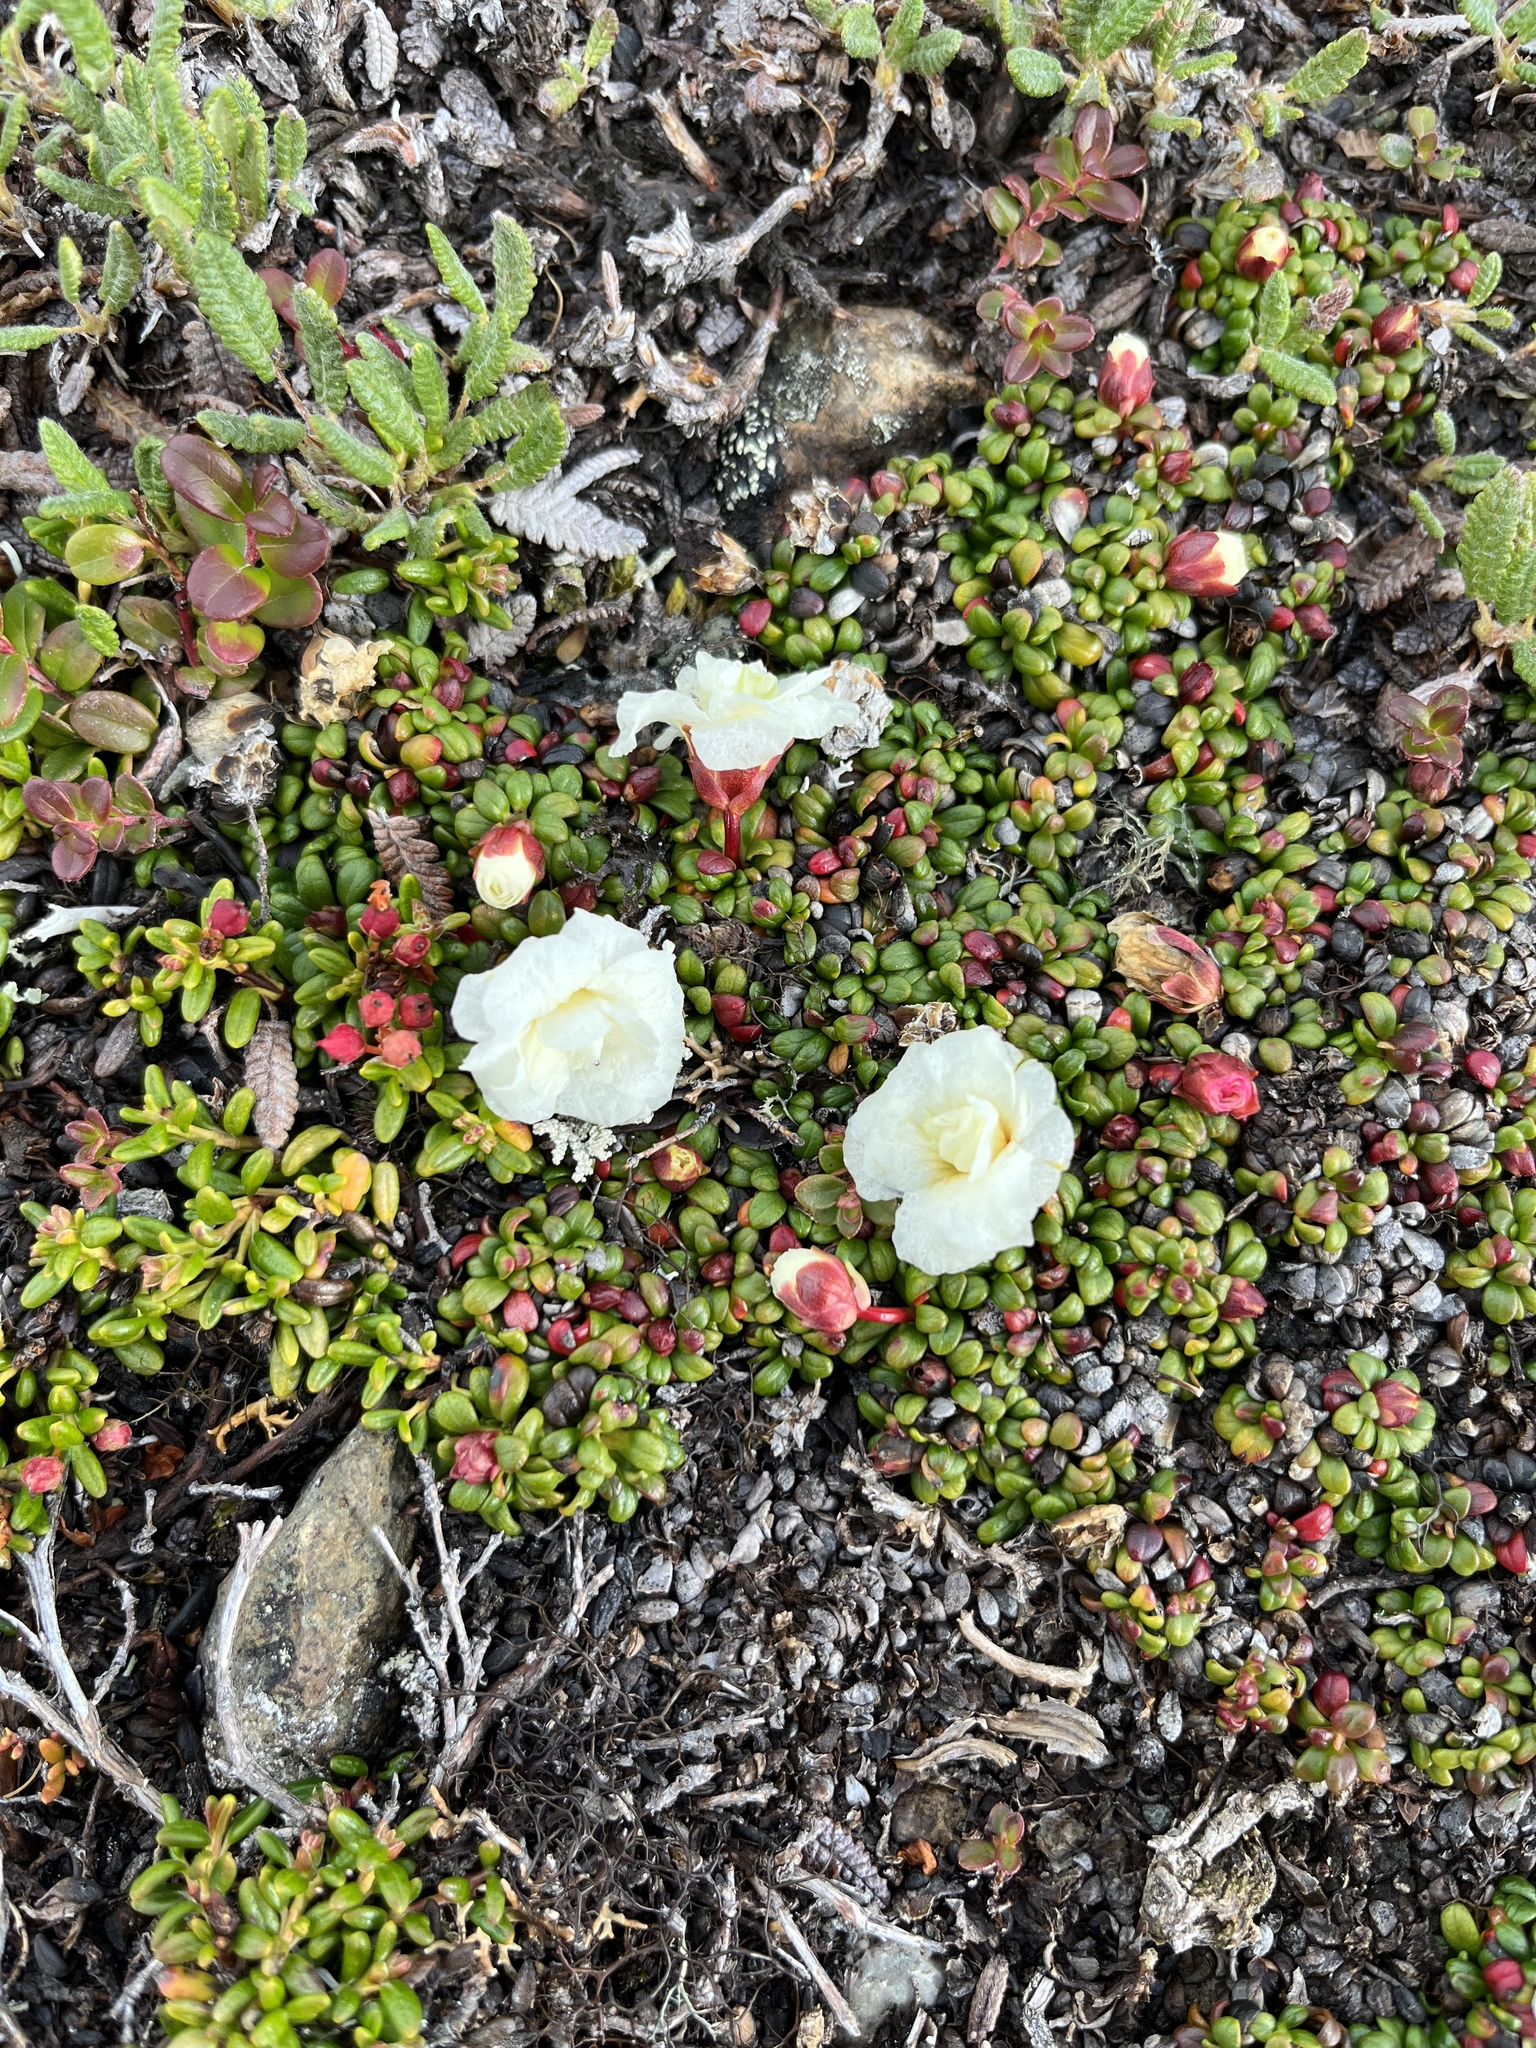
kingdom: Plantae
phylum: Tracheophyta
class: Magnoliopsida
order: Ericales
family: Diapensiaceae
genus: Diapensia
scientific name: Diapensia obovata
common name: Alaska diapensia
